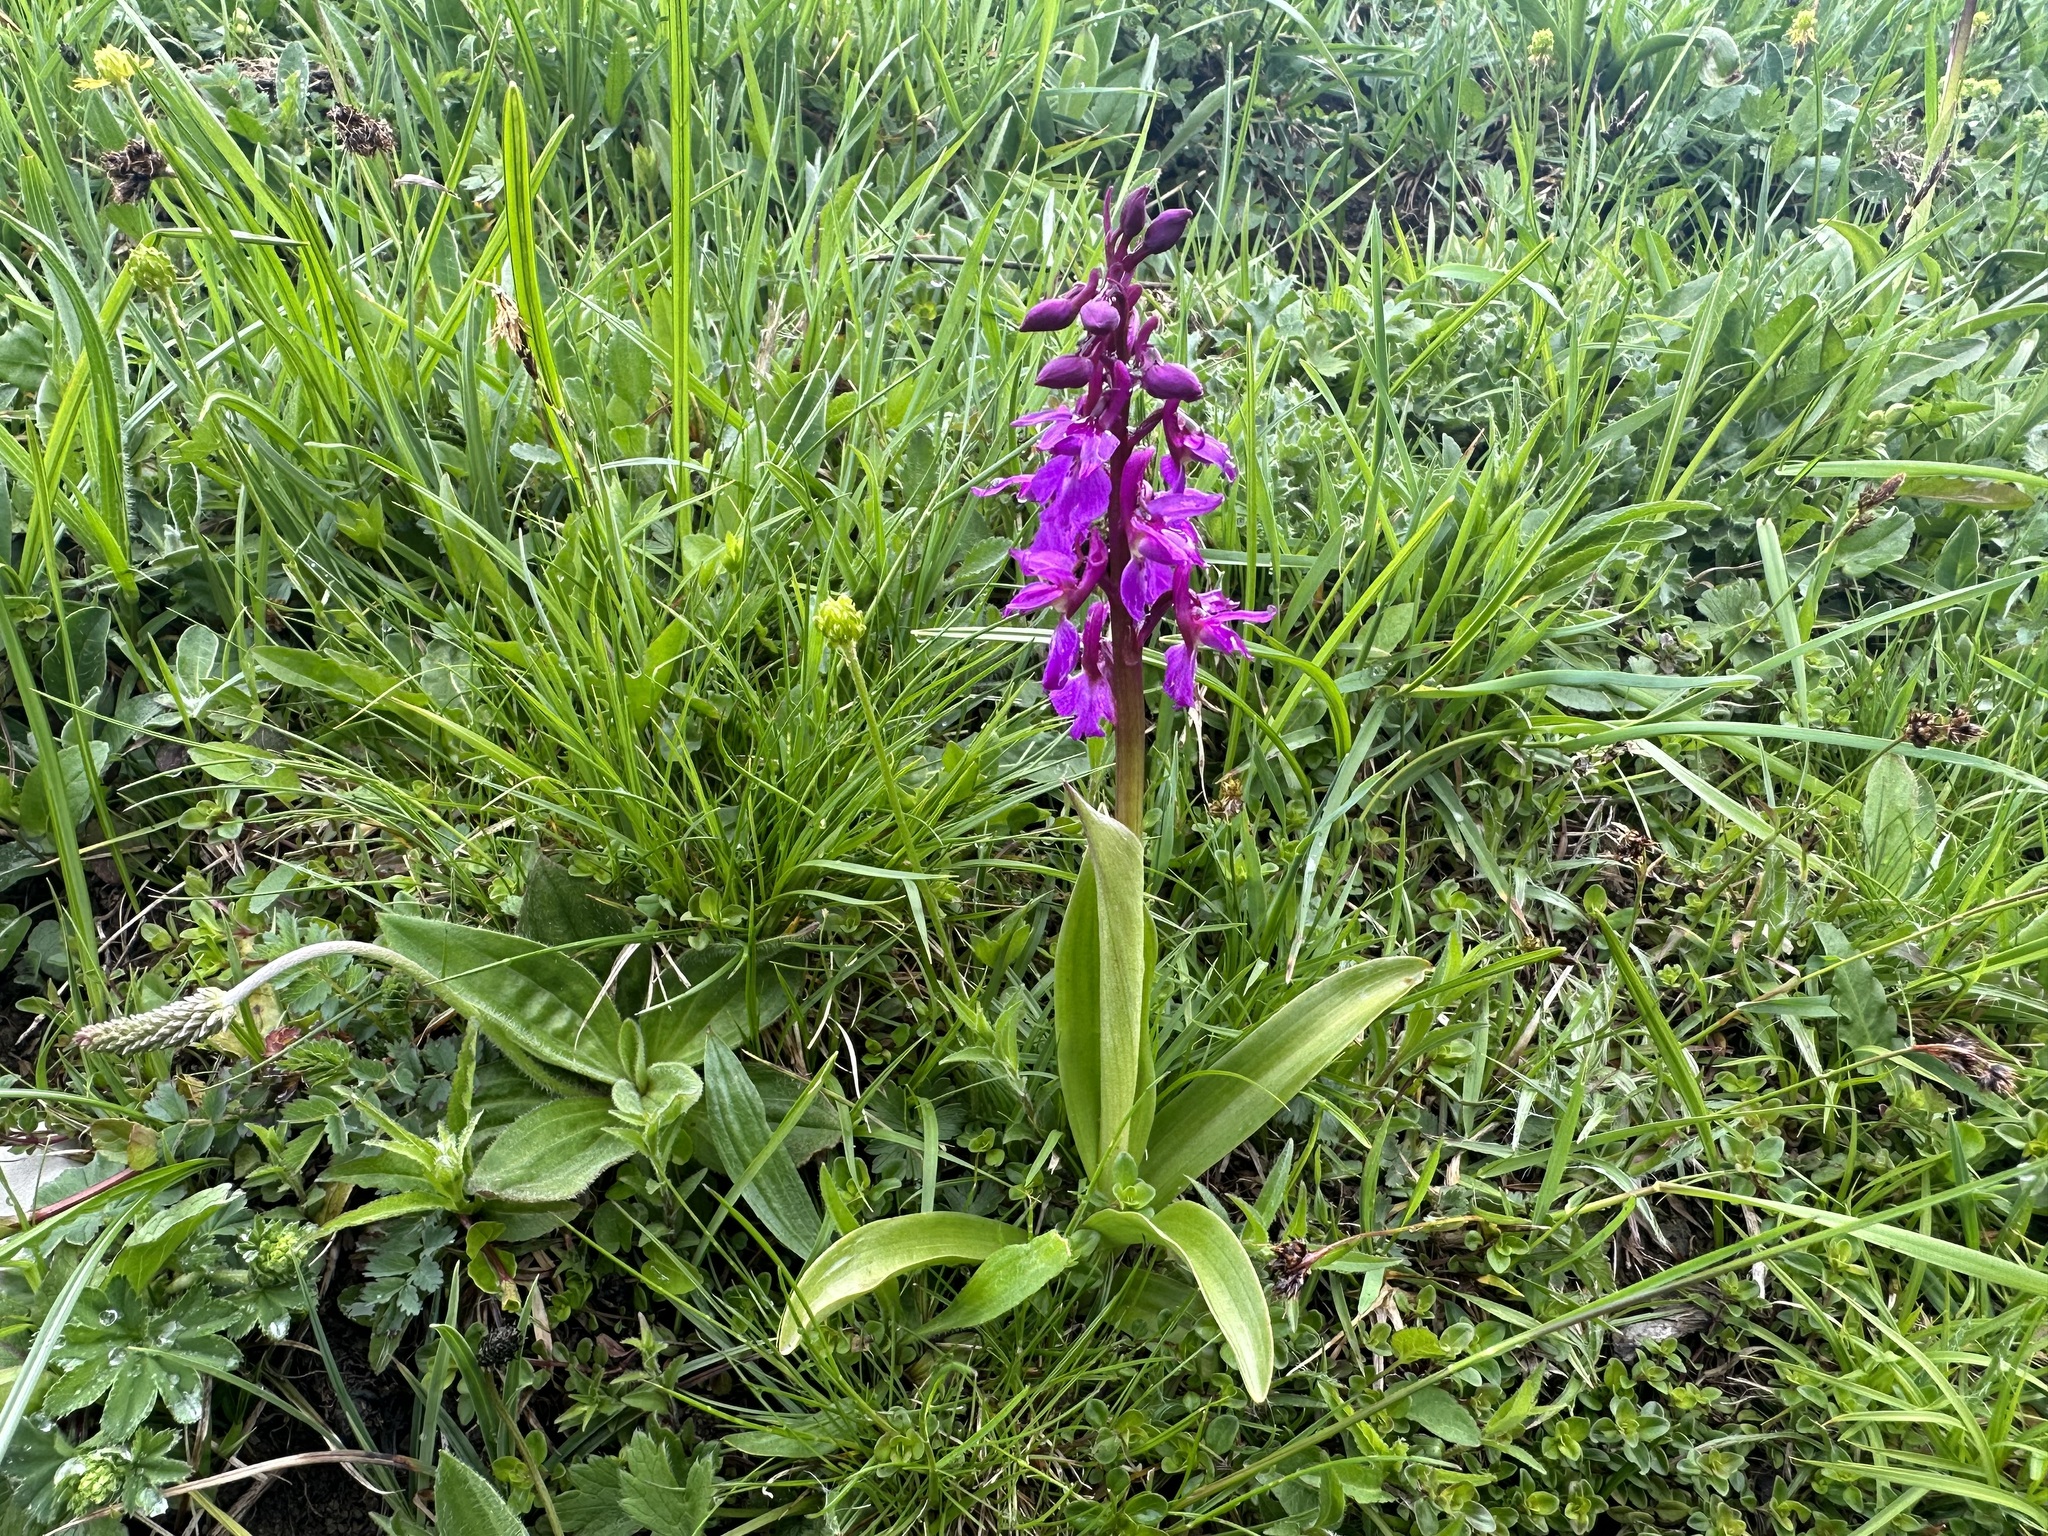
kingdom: Plantae
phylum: Tracheophyta
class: Liliopsida
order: Asparagales
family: Orchidaceae
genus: Orchis
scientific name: Orchis mascula
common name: Early-purple orchid
